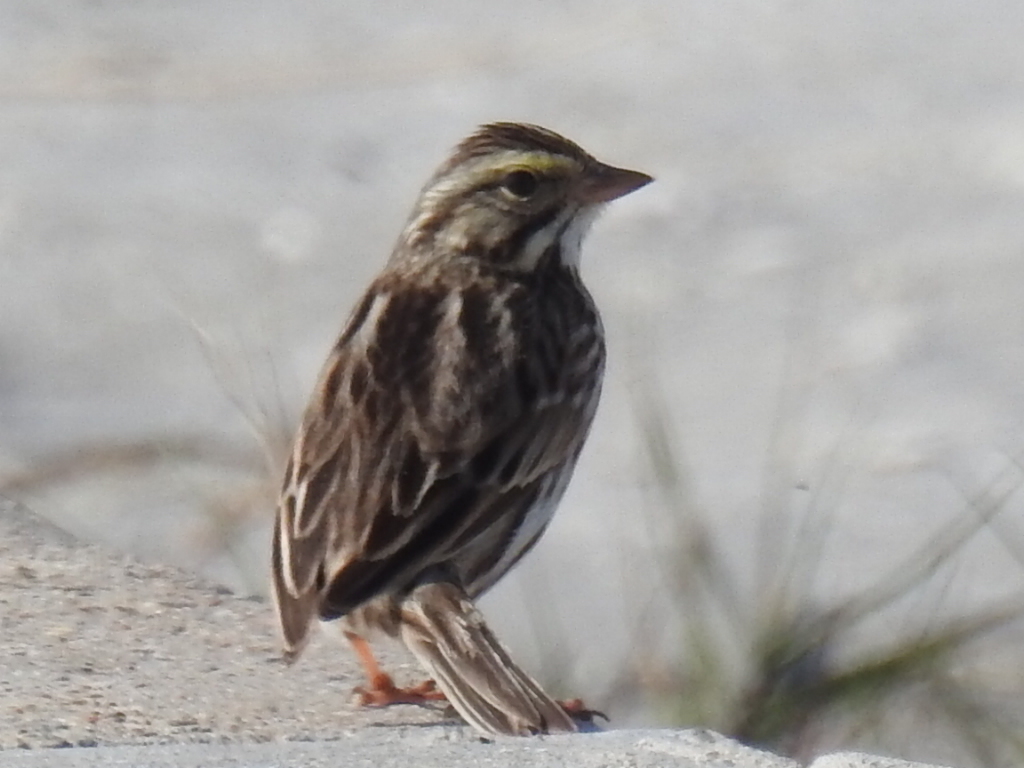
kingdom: Animalia
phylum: Chordata
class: Aves
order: Passeriformes
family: Passerellidae
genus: Passerculus
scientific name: Passerculus sandwichensis
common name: Savannah sparrow
